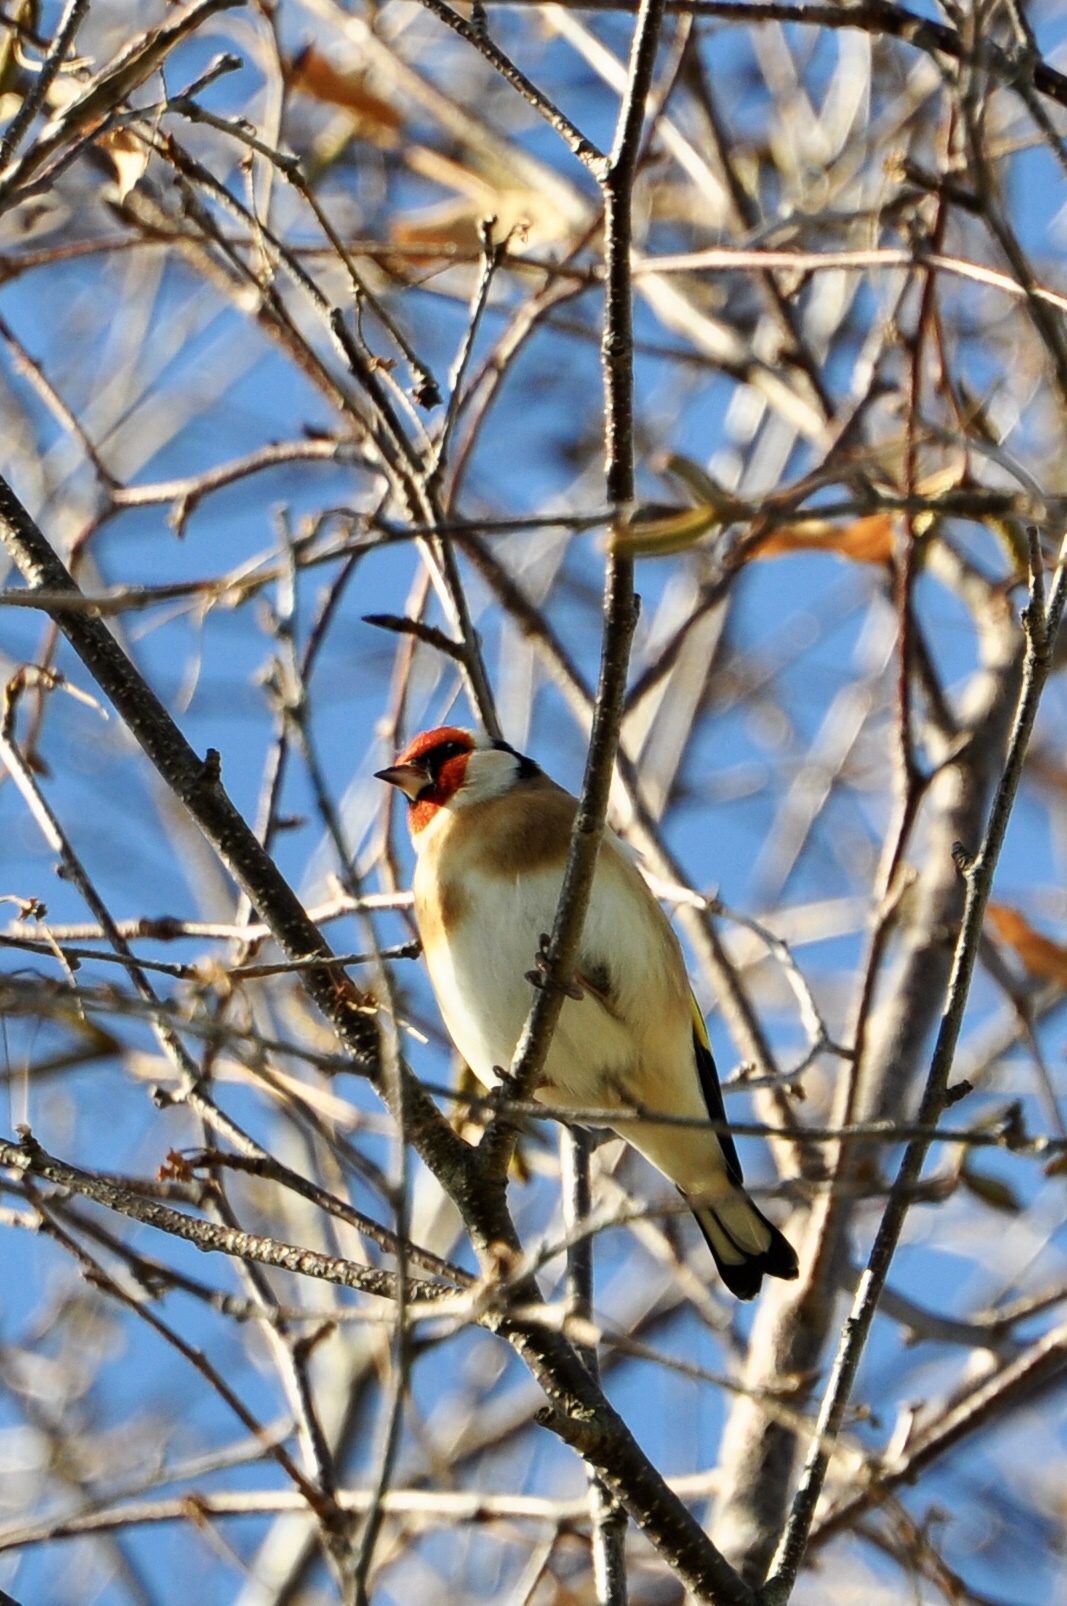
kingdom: Animalia
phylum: Chordata
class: Aves
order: Passeriformes
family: Fringillidae
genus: Carduelis
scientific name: Carduelis carduelis
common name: European goldfinch
